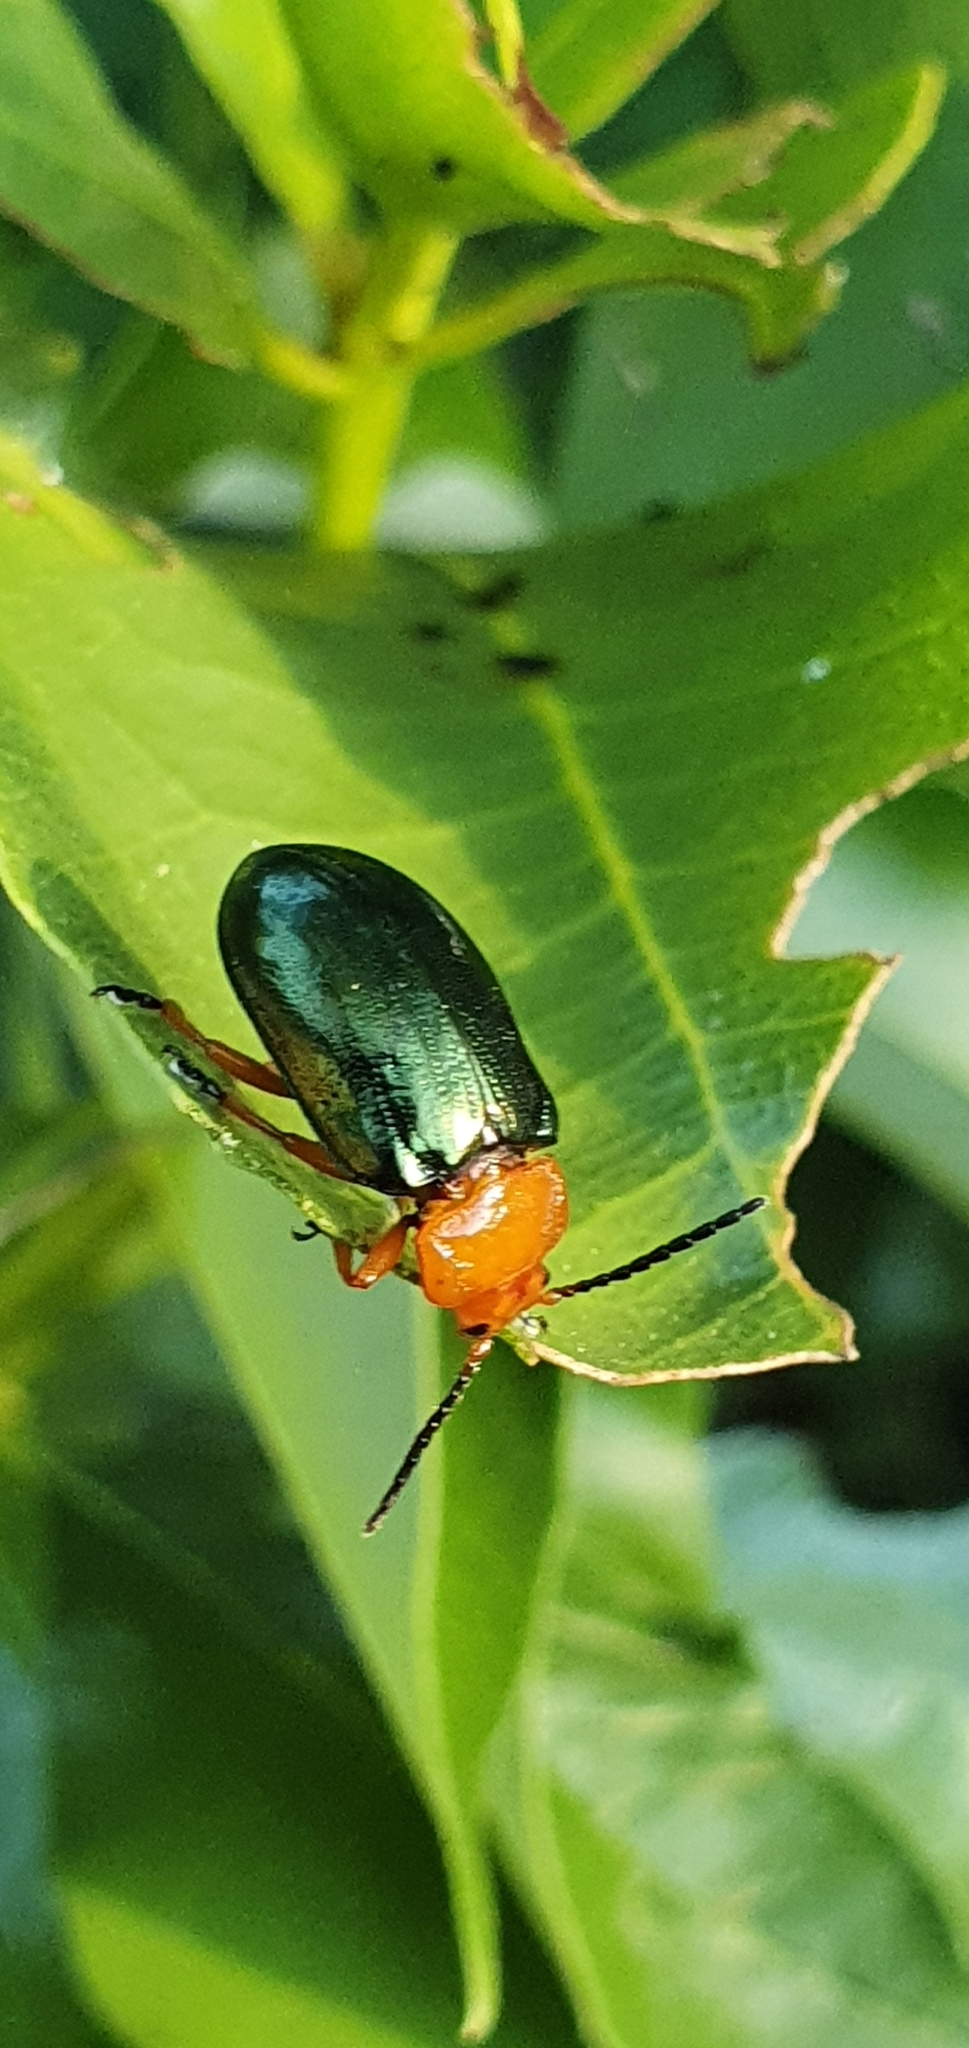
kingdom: Animalia
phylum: Arthropoda
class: Insecta
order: Coleoptera
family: Chrysomelidae
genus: Lamprolina
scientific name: Lamprolina
